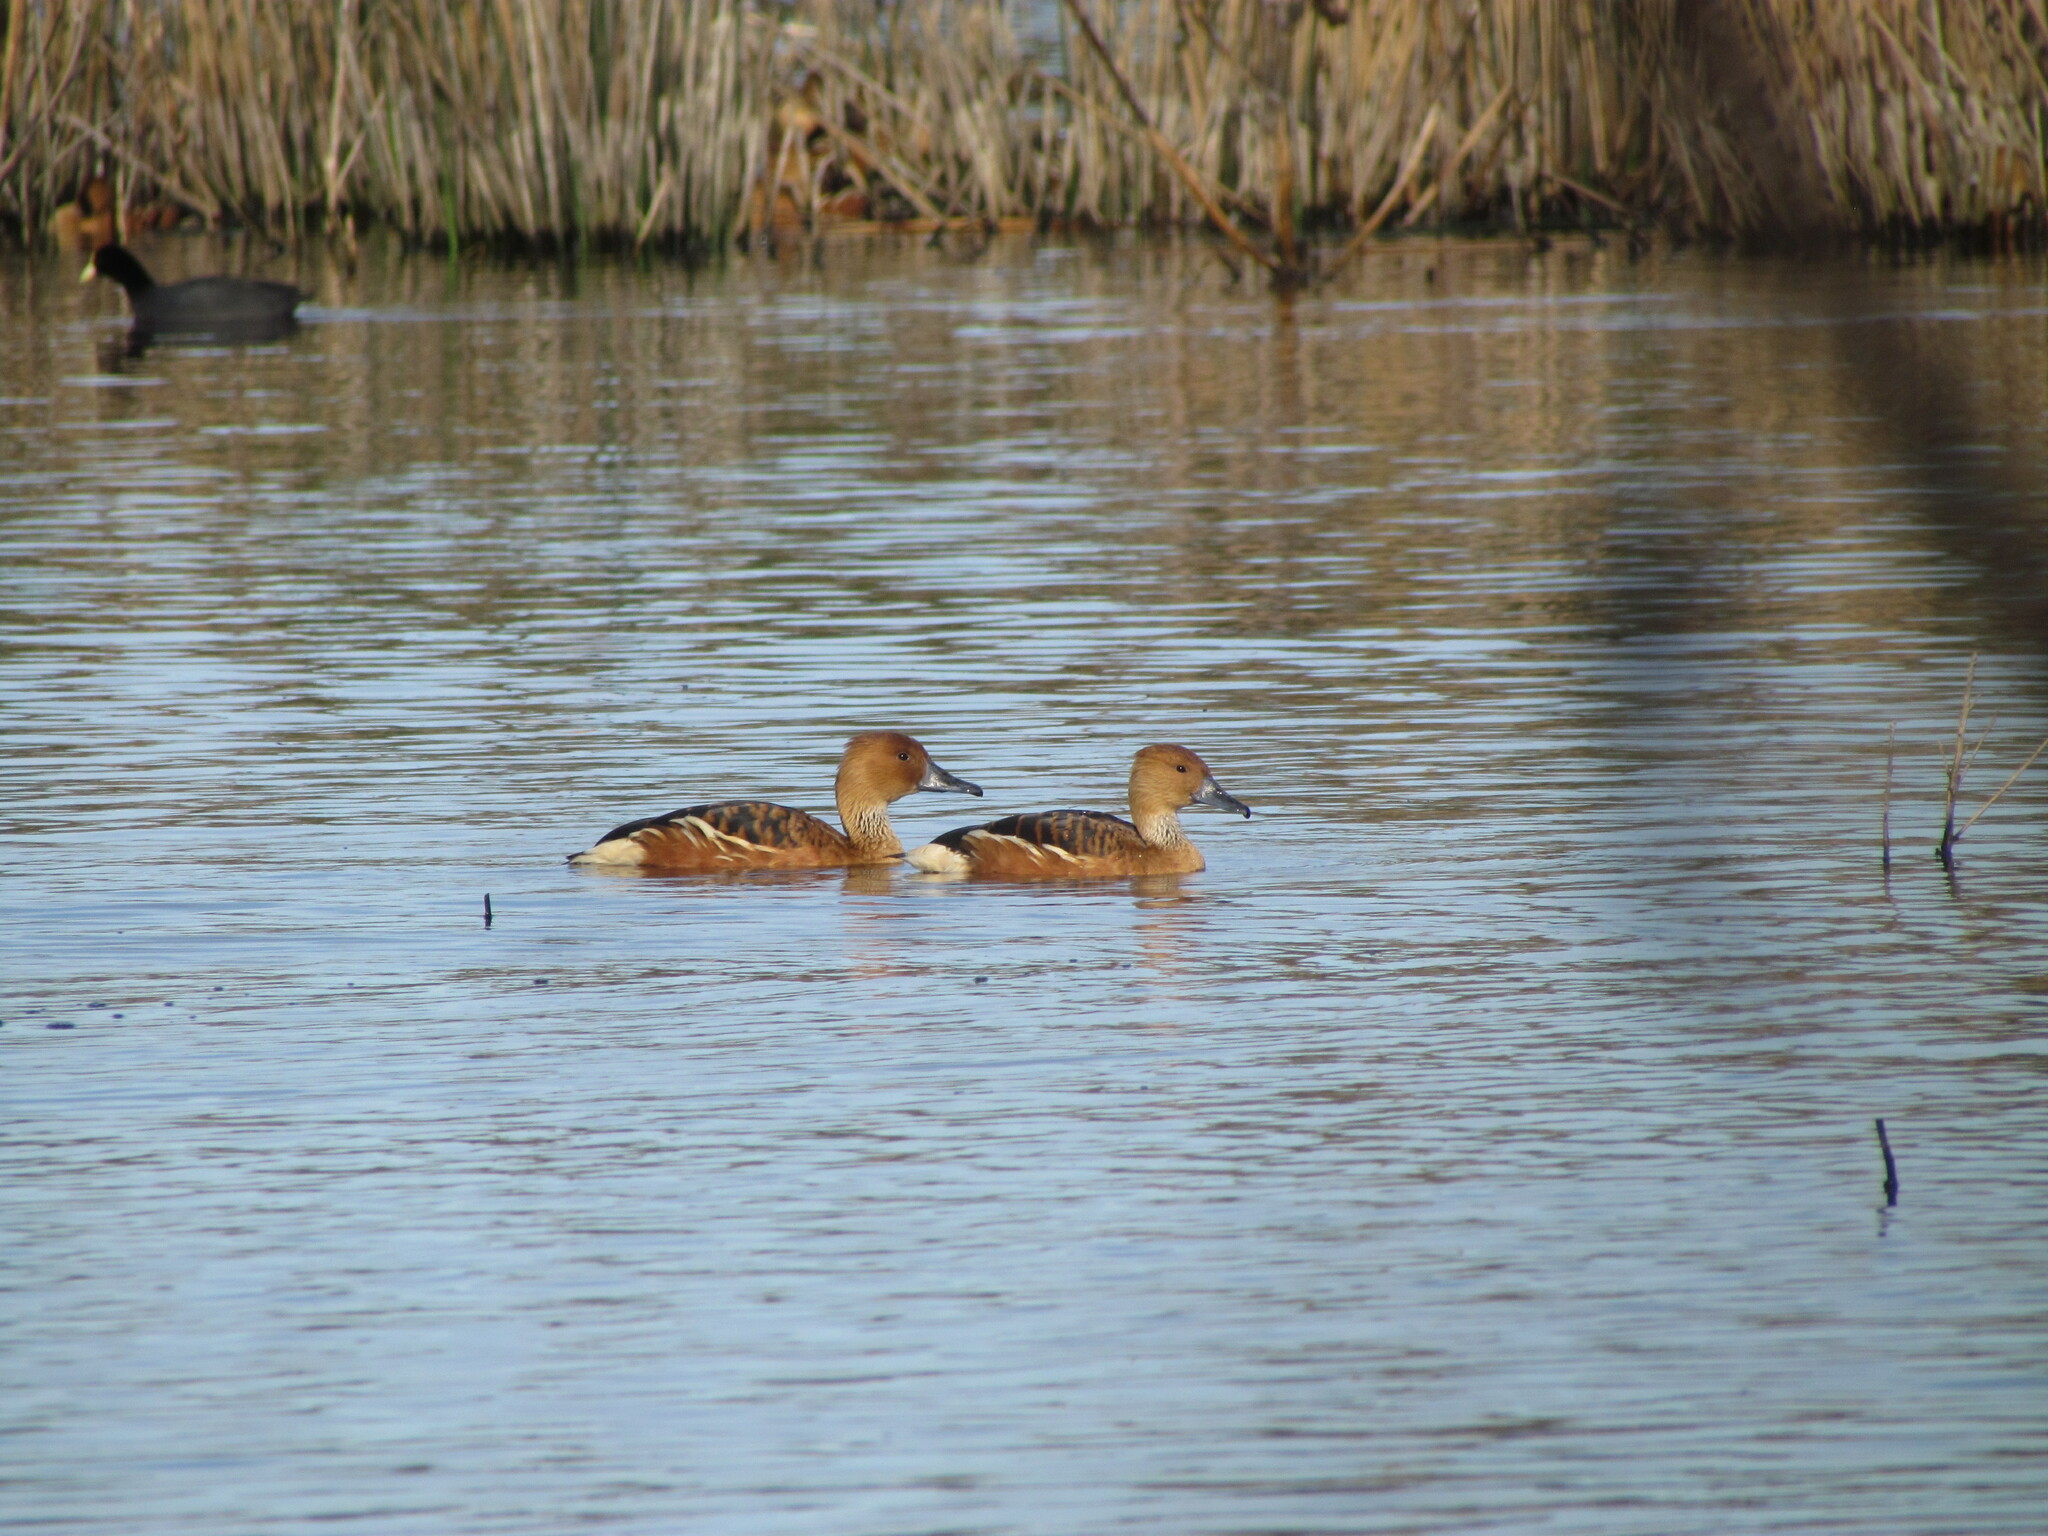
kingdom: Animalia
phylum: Chordata
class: Aves
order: Anseriformes
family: Anatidae
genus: Dendrocygna
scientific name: Dendrocygna bicolor
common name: Fulvous whistling duck
